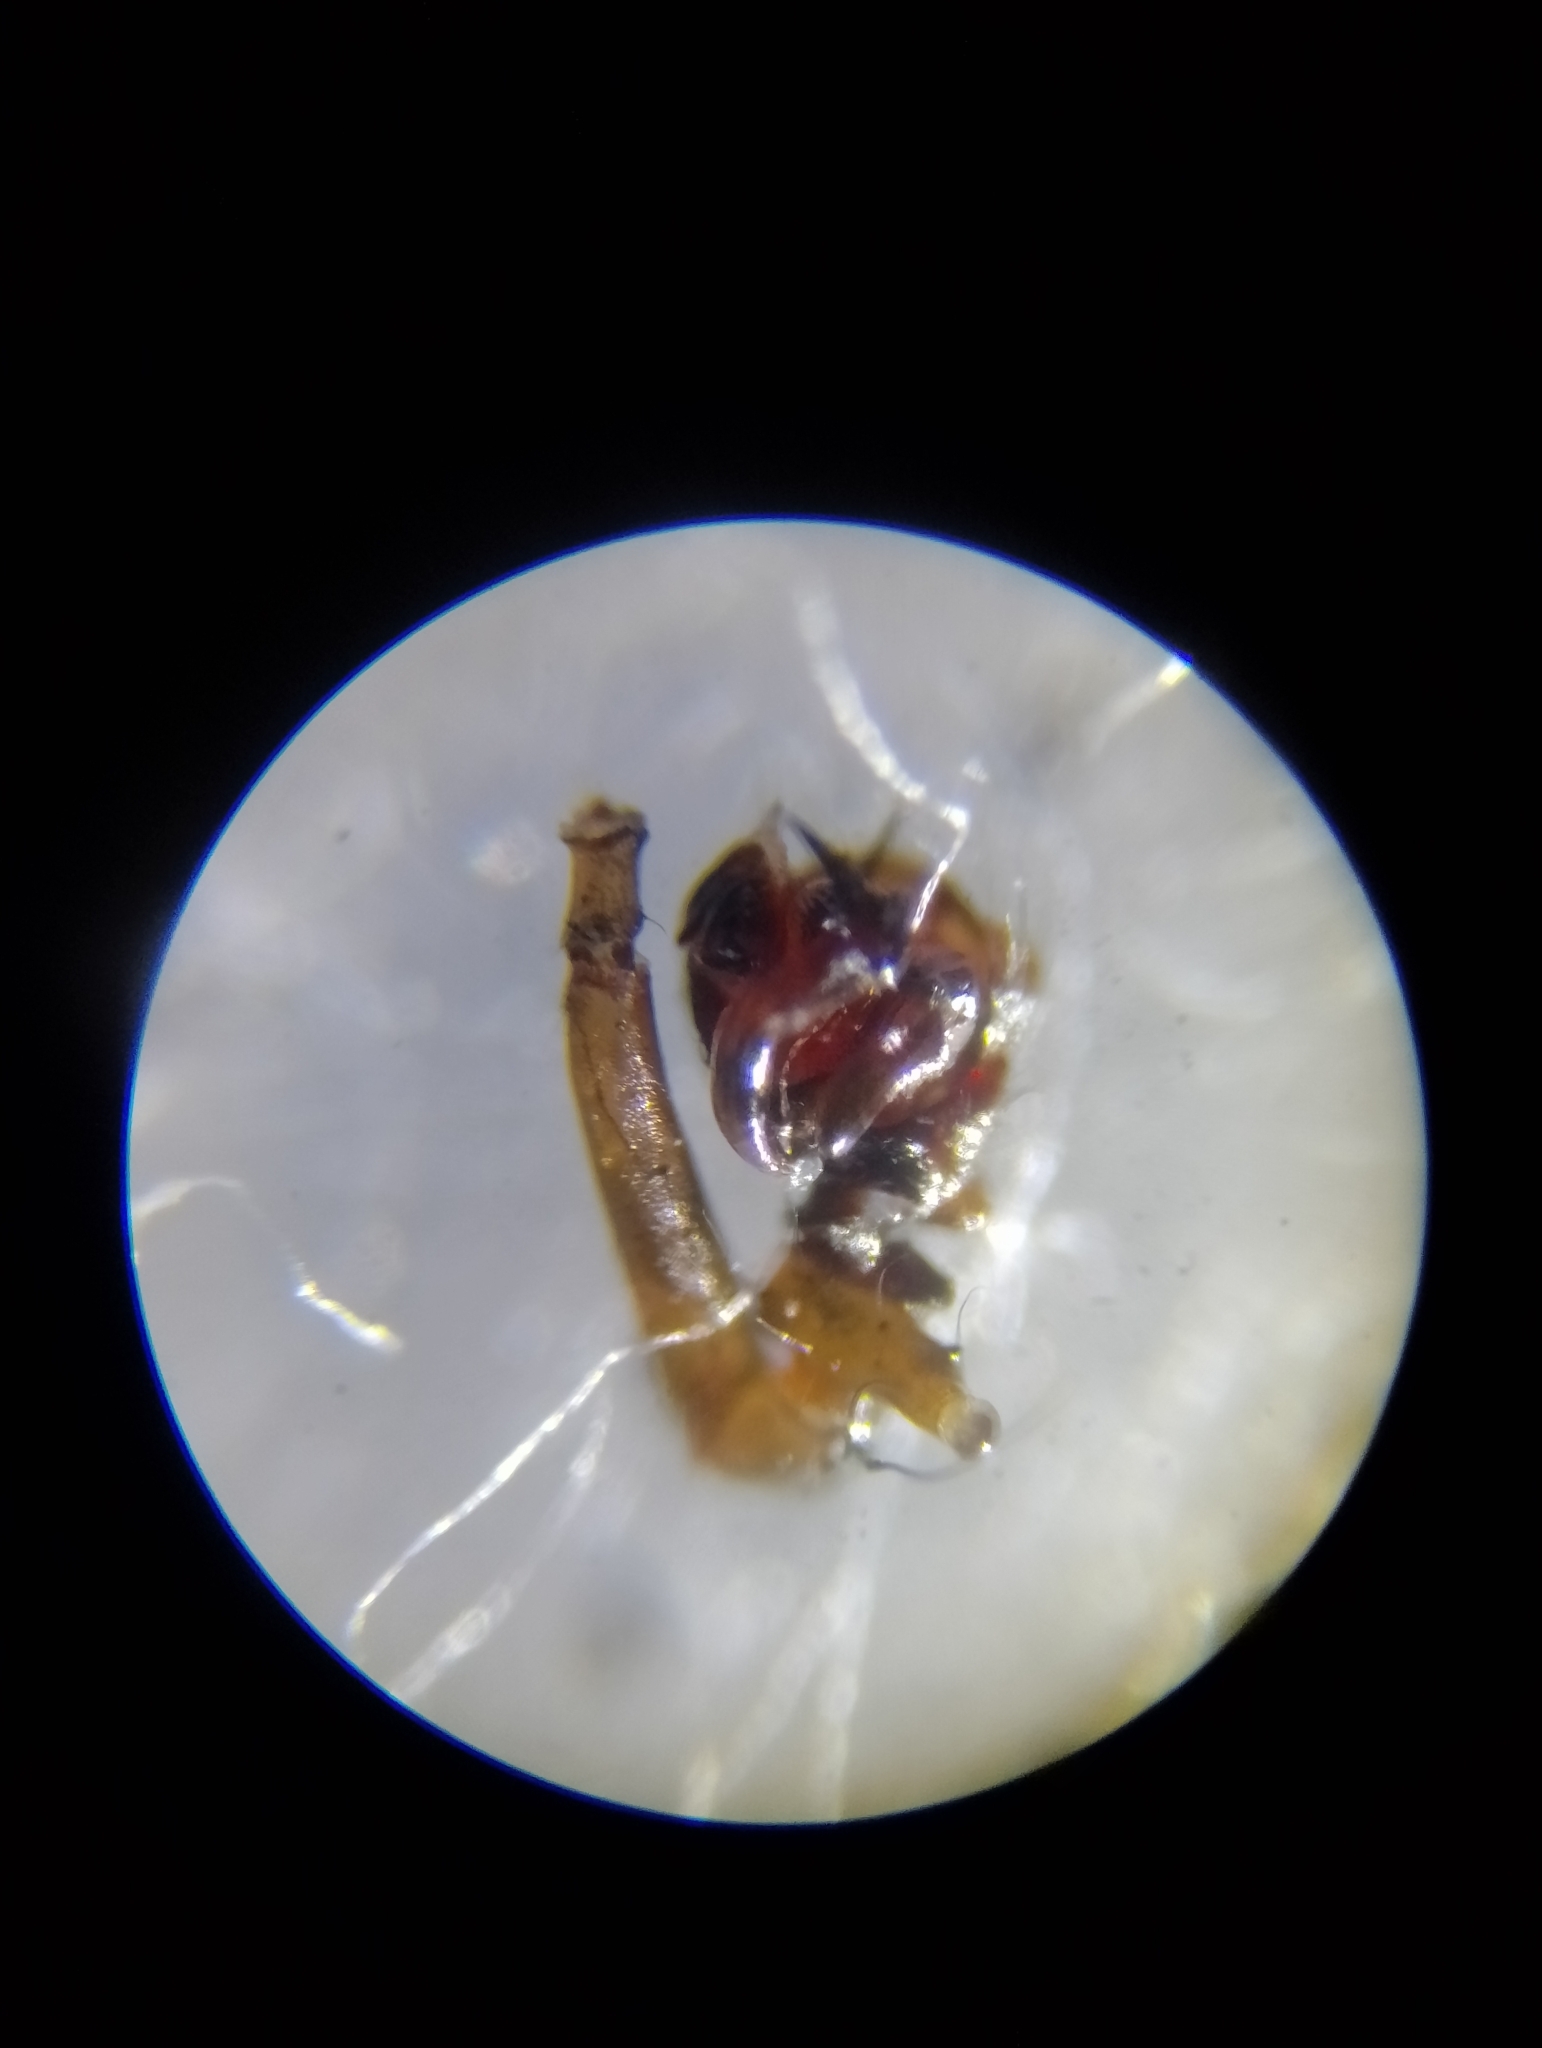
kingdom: Animalia
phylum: Arthropoda
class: Arachnida
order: Araneae
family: Linyphiidae
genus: Megalepthyphantes
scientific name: Megalepthyphantes pseudocollinus
